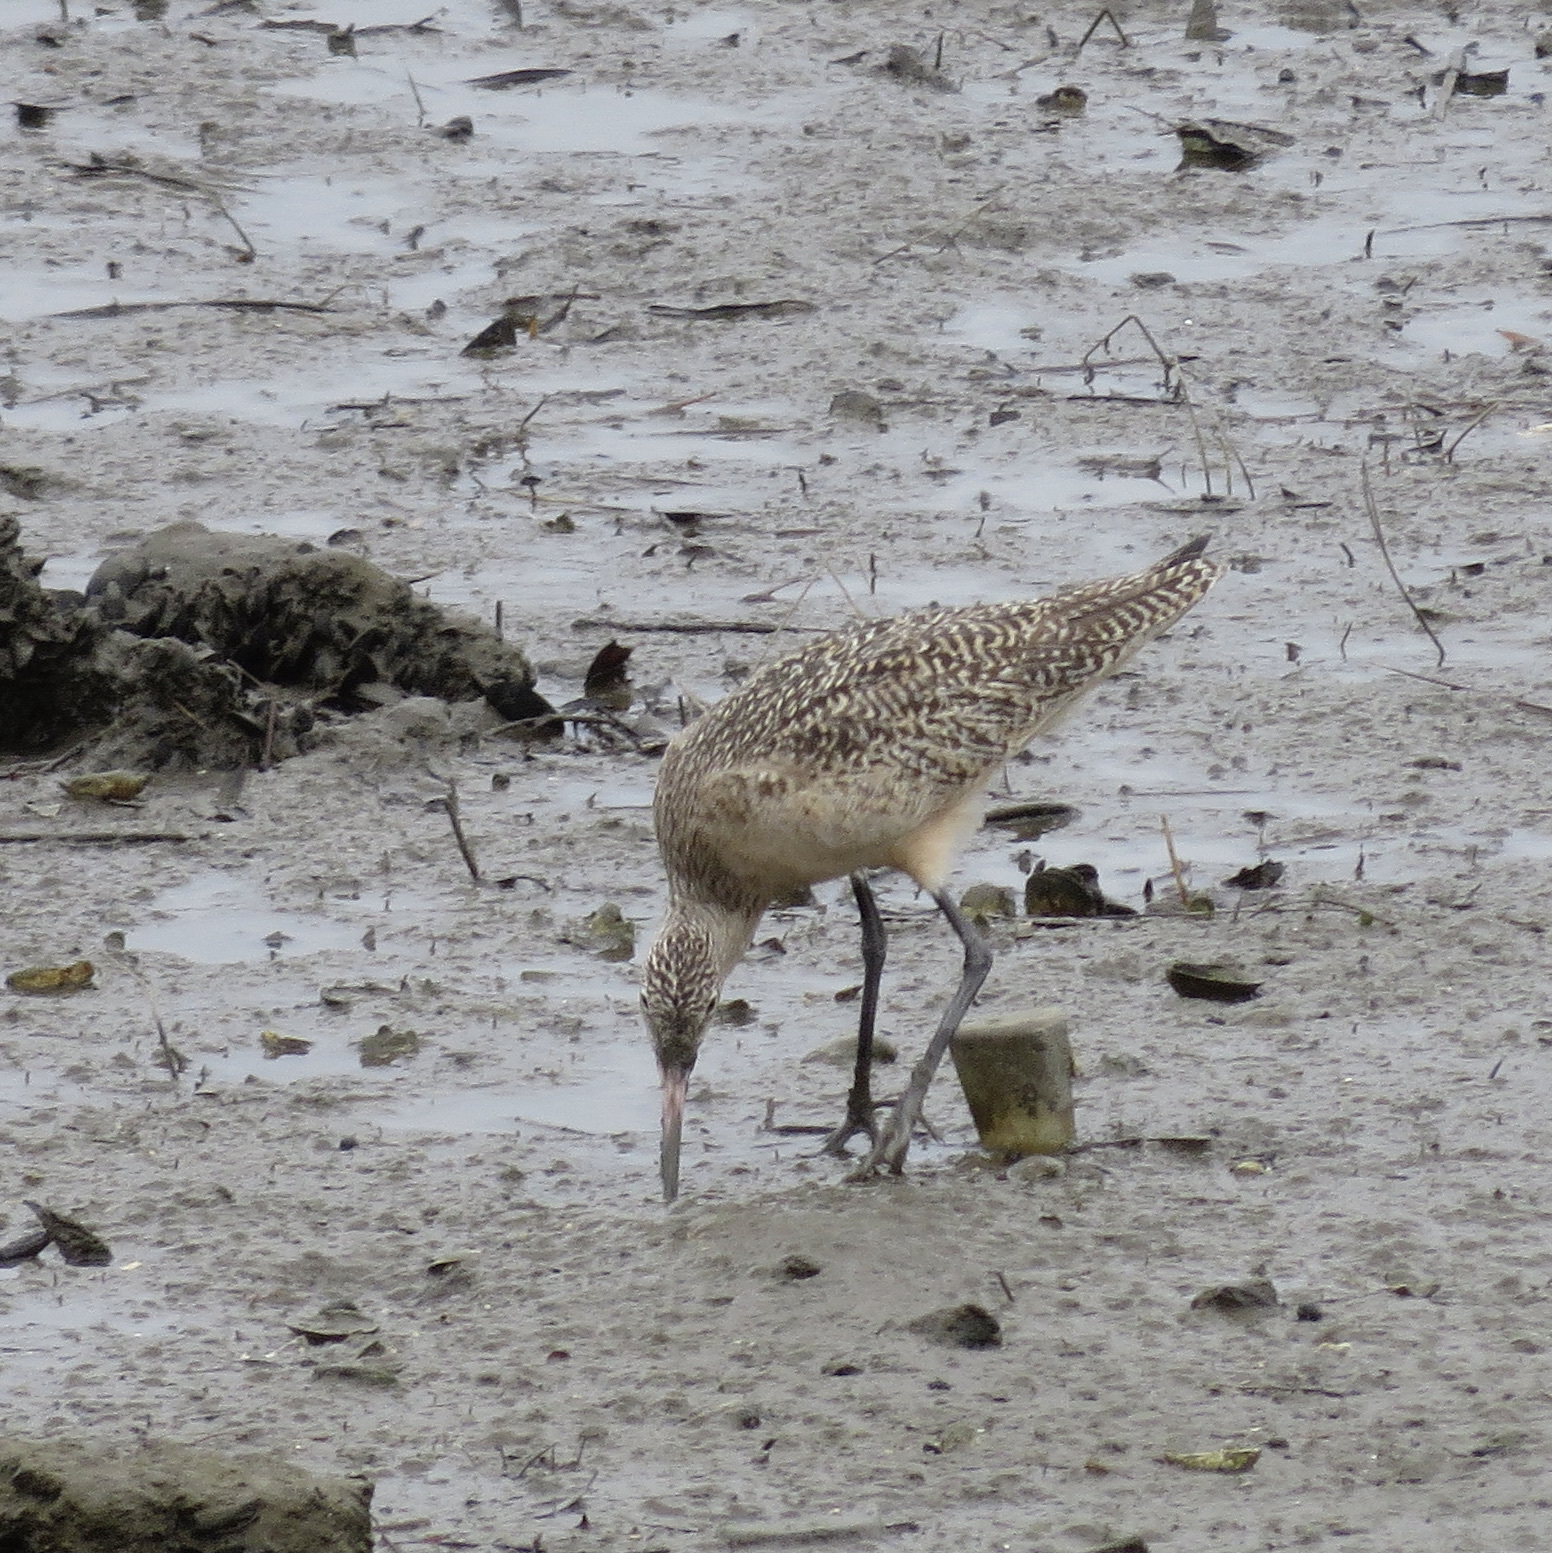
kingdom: Animalia
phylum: Chordata
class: Aves
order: Charadriiformes
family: Scolopacidae
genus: Limosa
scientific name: Limosa fedoa
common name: Marbled godwit
